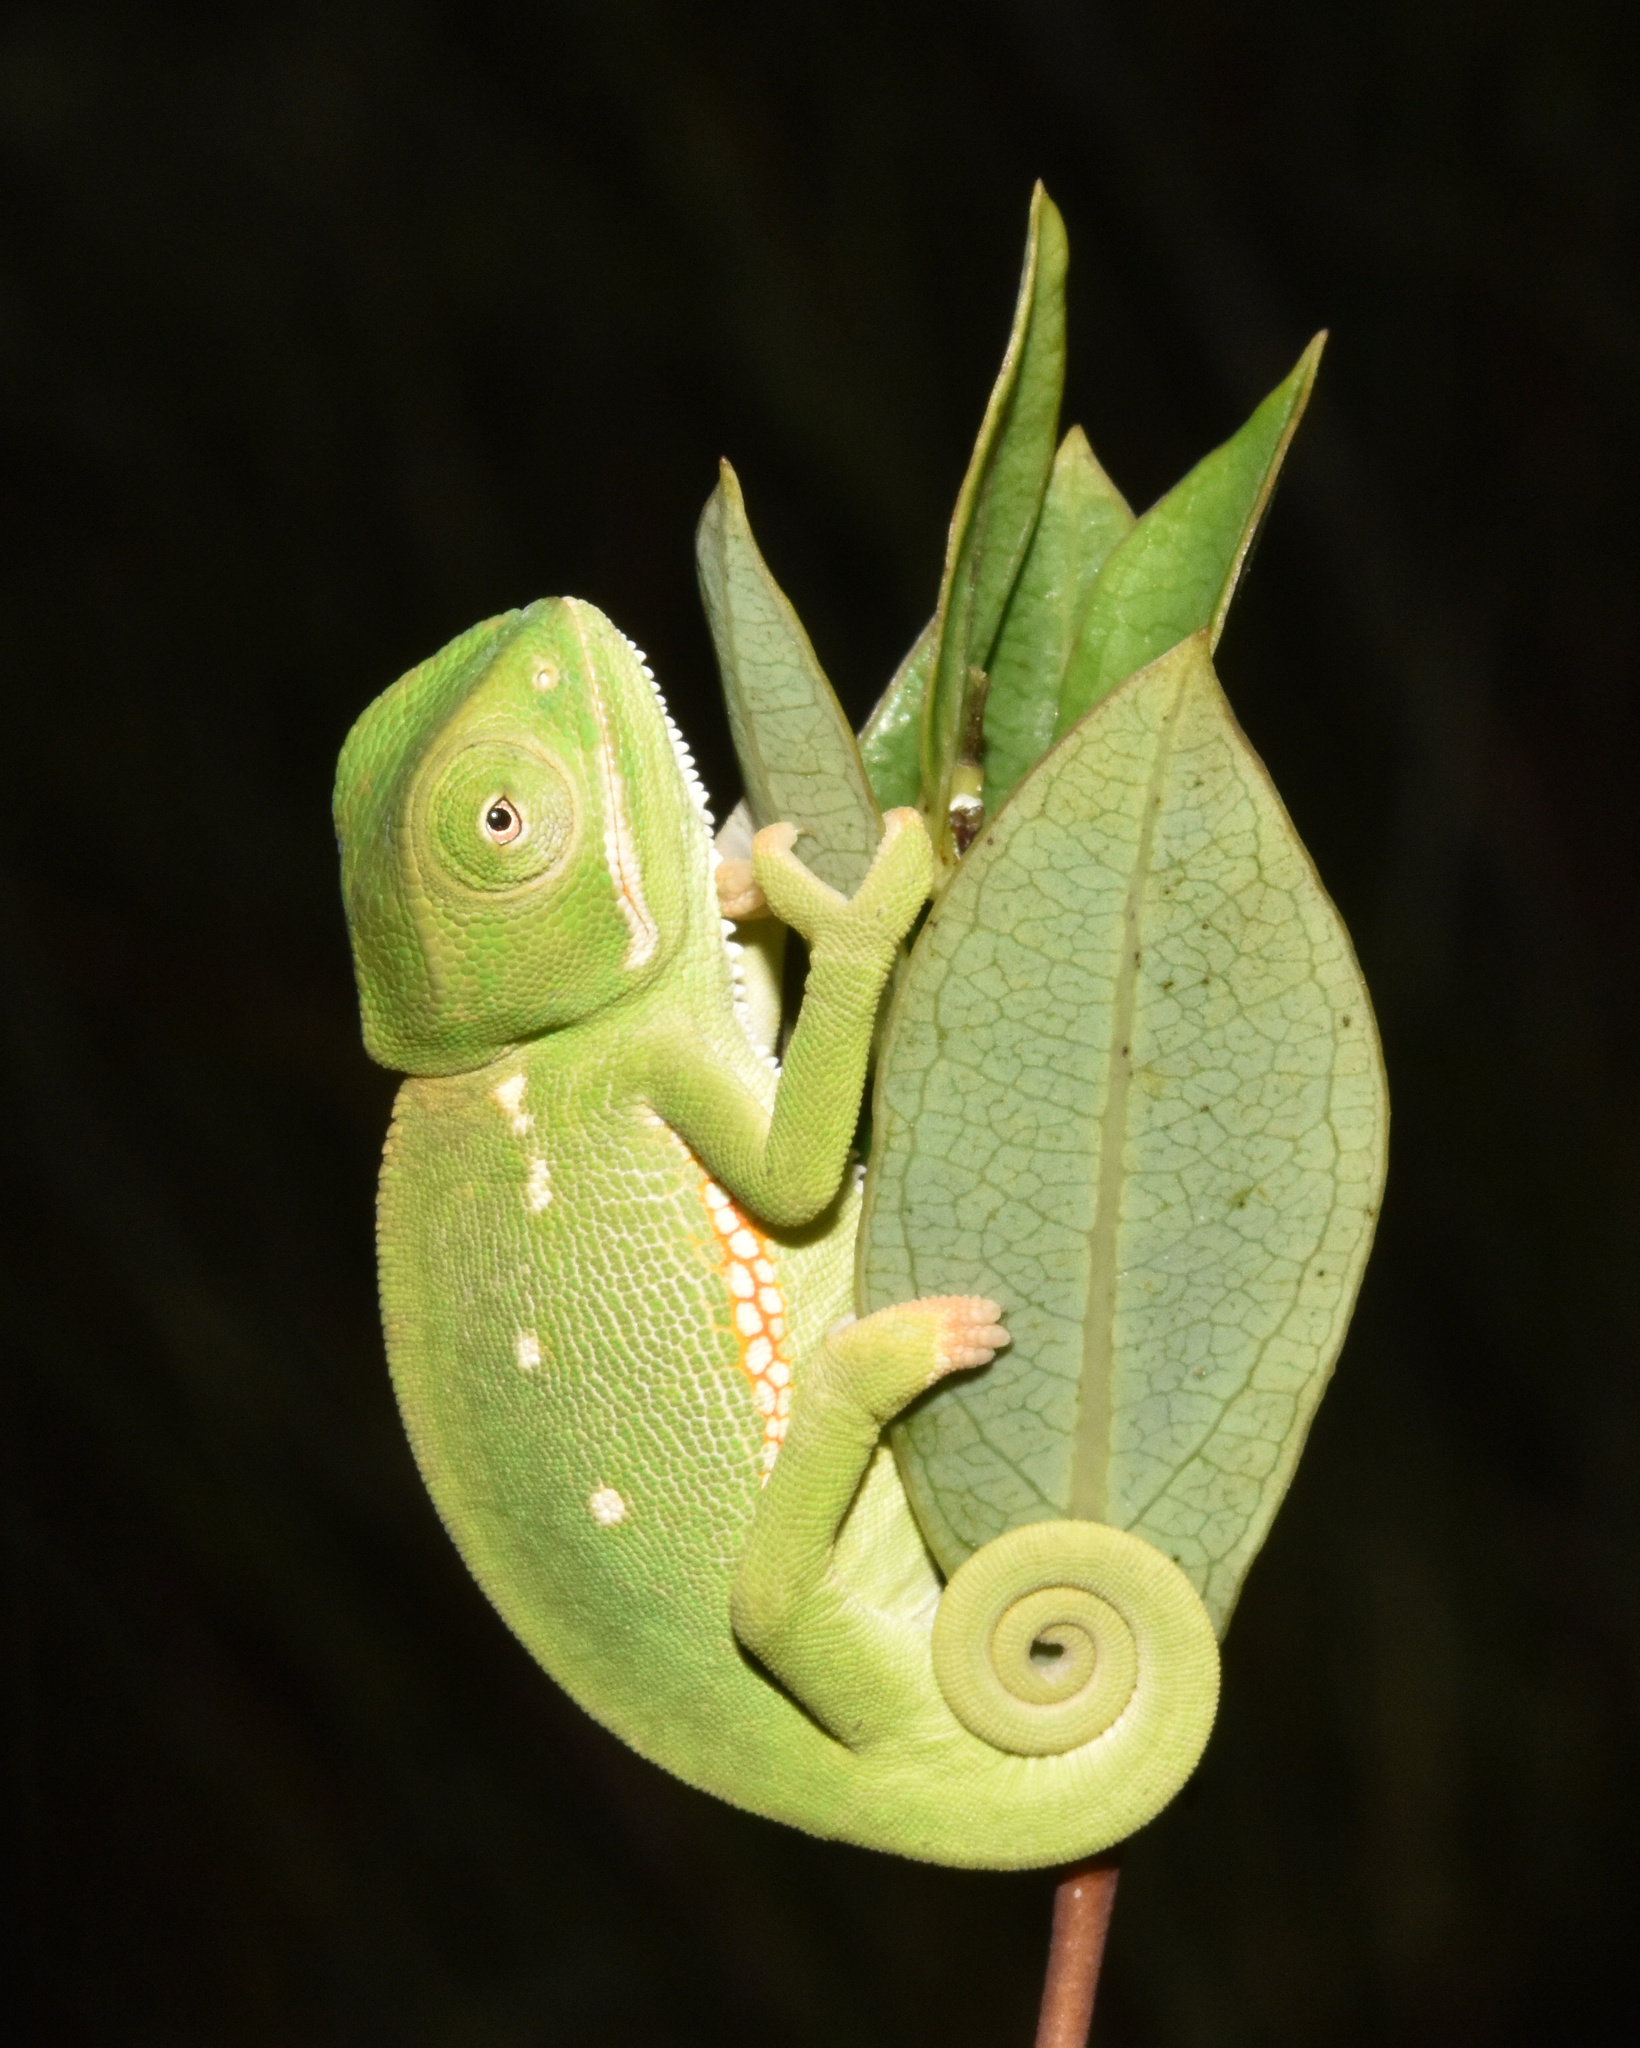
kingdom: Animalia
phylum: Chordata
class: Squamata
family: Chamaeleonidae
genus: Chamaeleo
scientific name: Chamaeleo dilepis
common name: Flapneck chameleon
